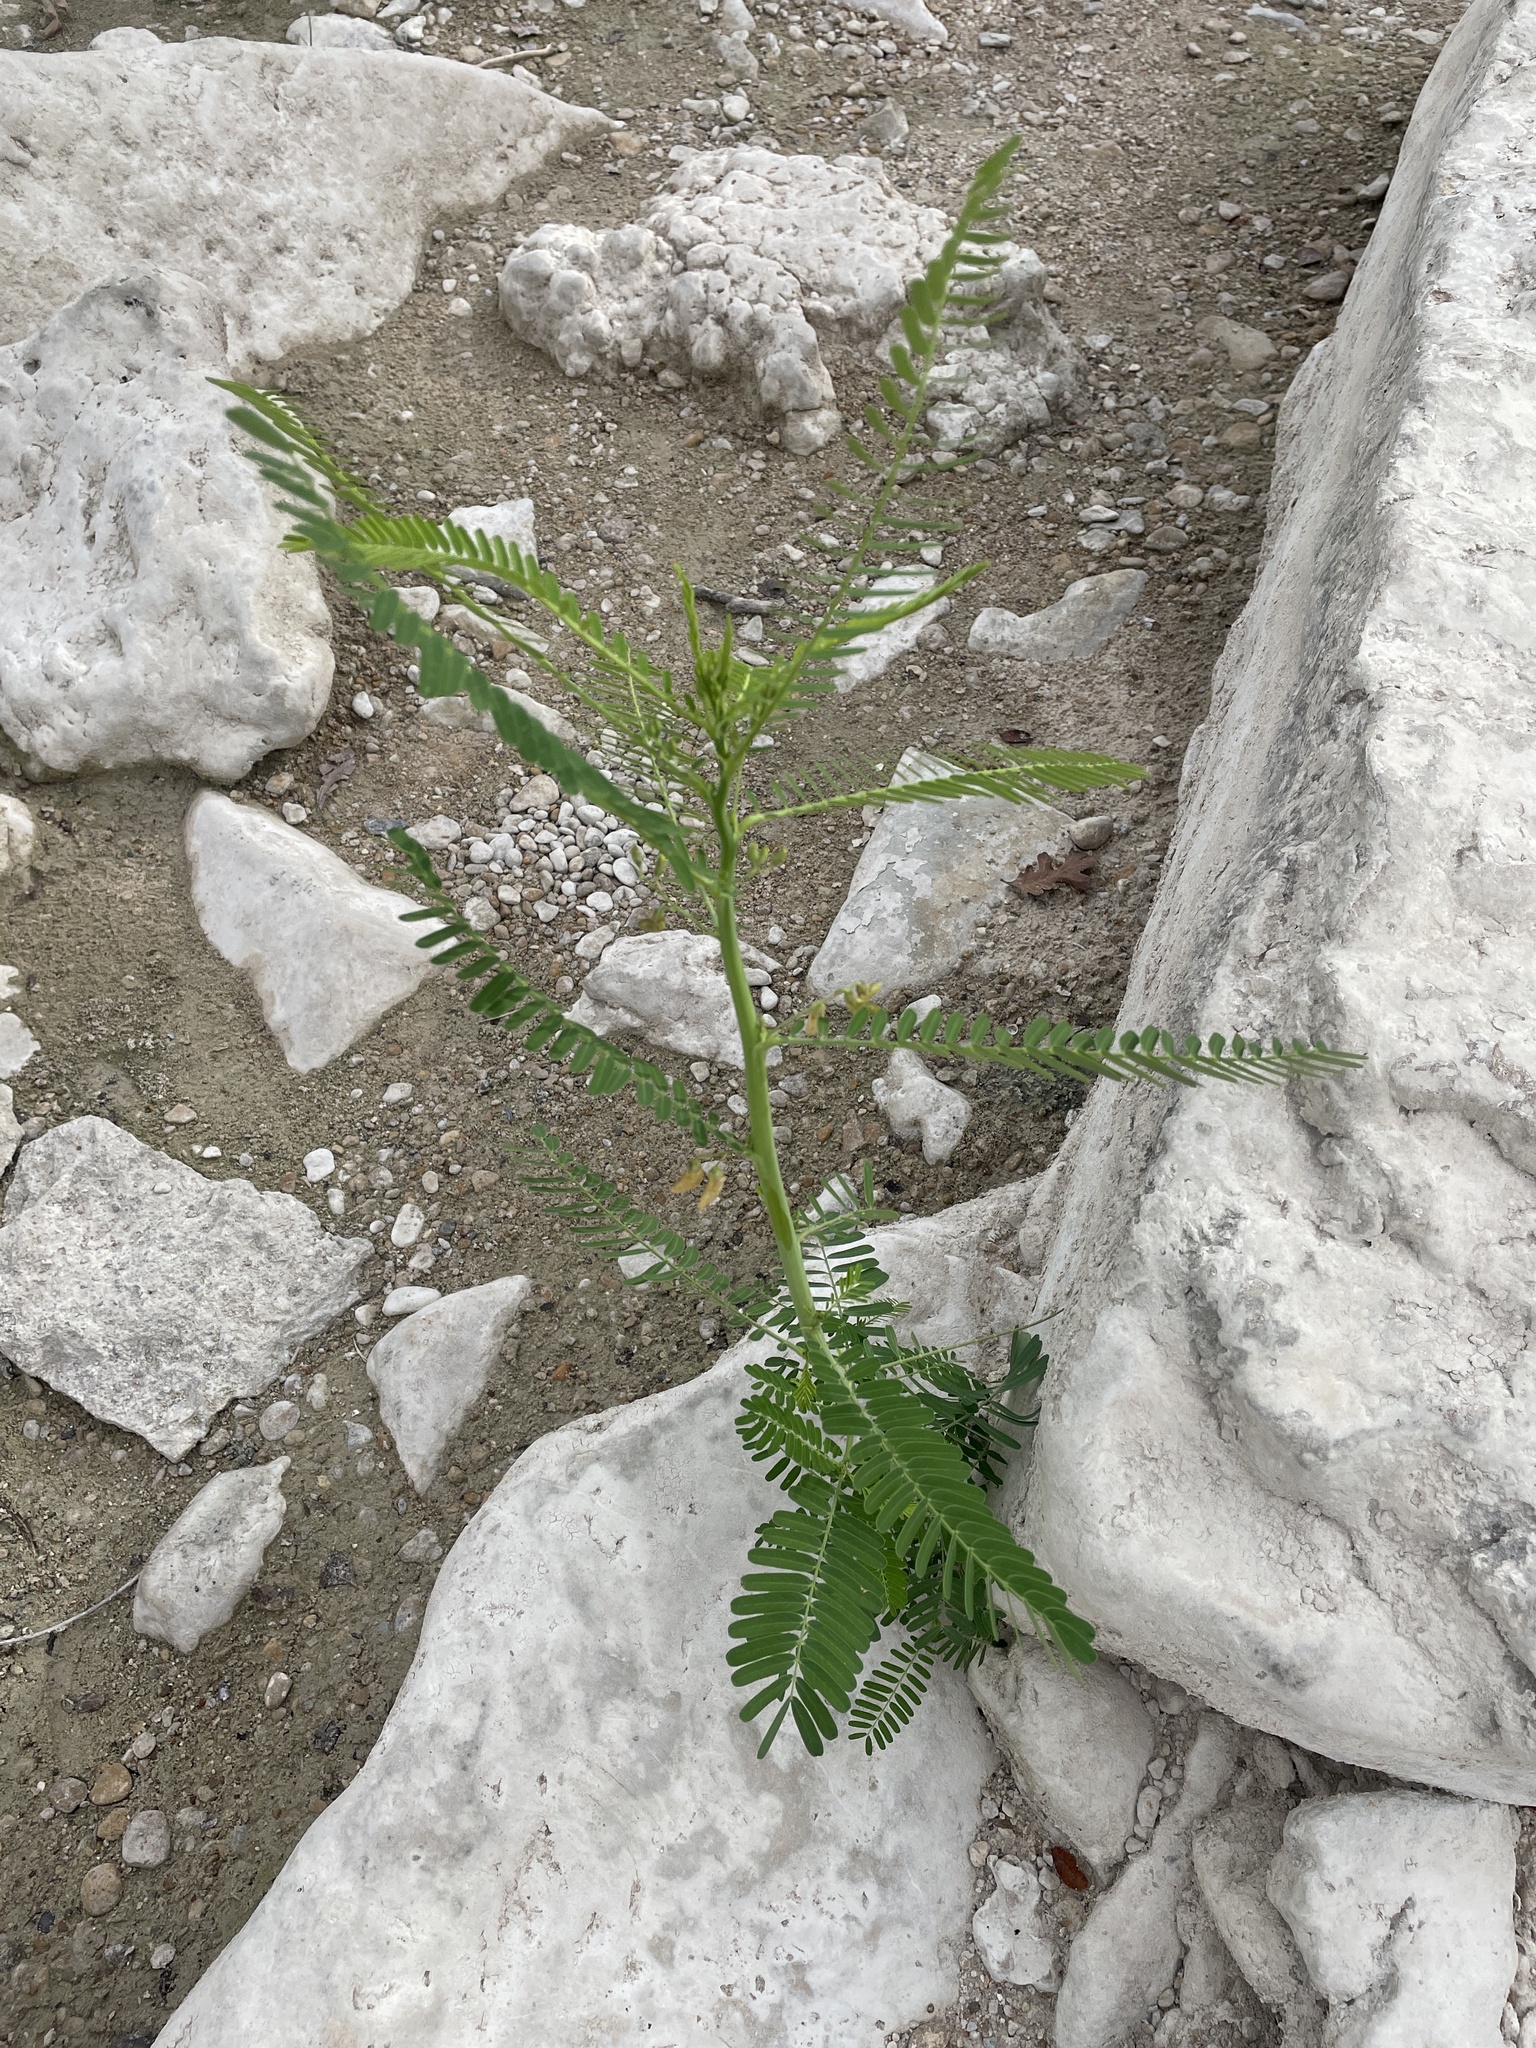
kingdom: Plantae
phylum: Tracheophyta
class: Magnoliopsida
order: Fabales
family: Fabaceae
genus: Sesbania
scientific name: Sesbania herbacea
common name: Bigpod sesbania
